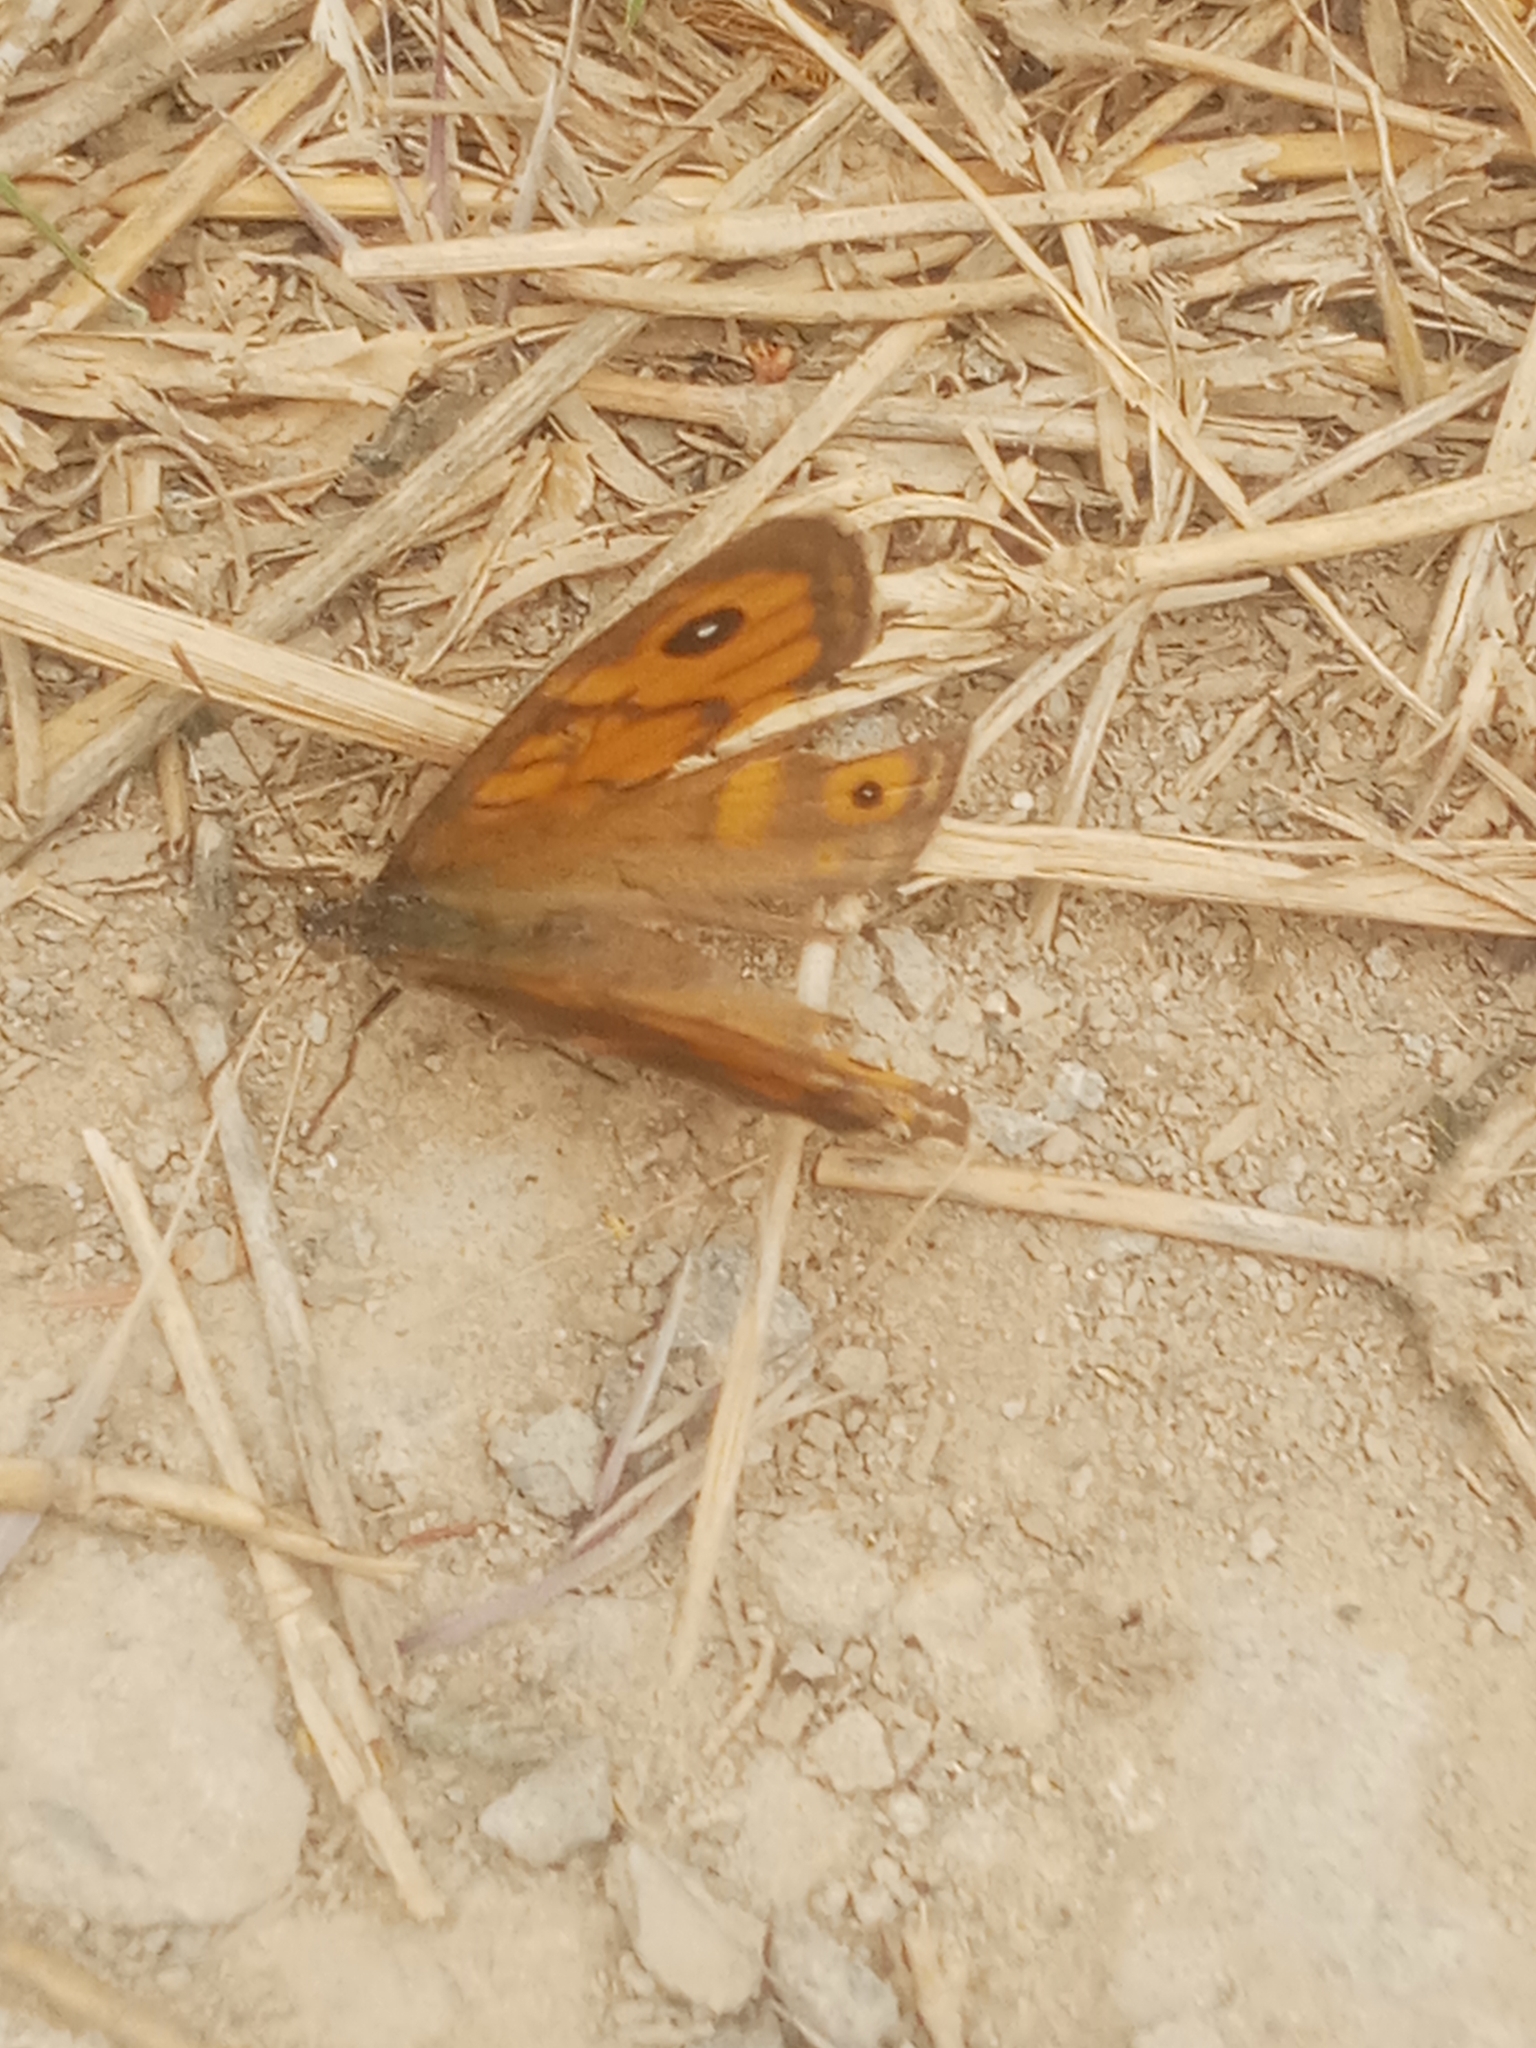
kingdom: Animalia
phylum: Arthropoda
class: Insecta
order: Lepidoptera
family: Nymphalidae
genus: Pararge
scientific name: Pararge Lasiommata megera
